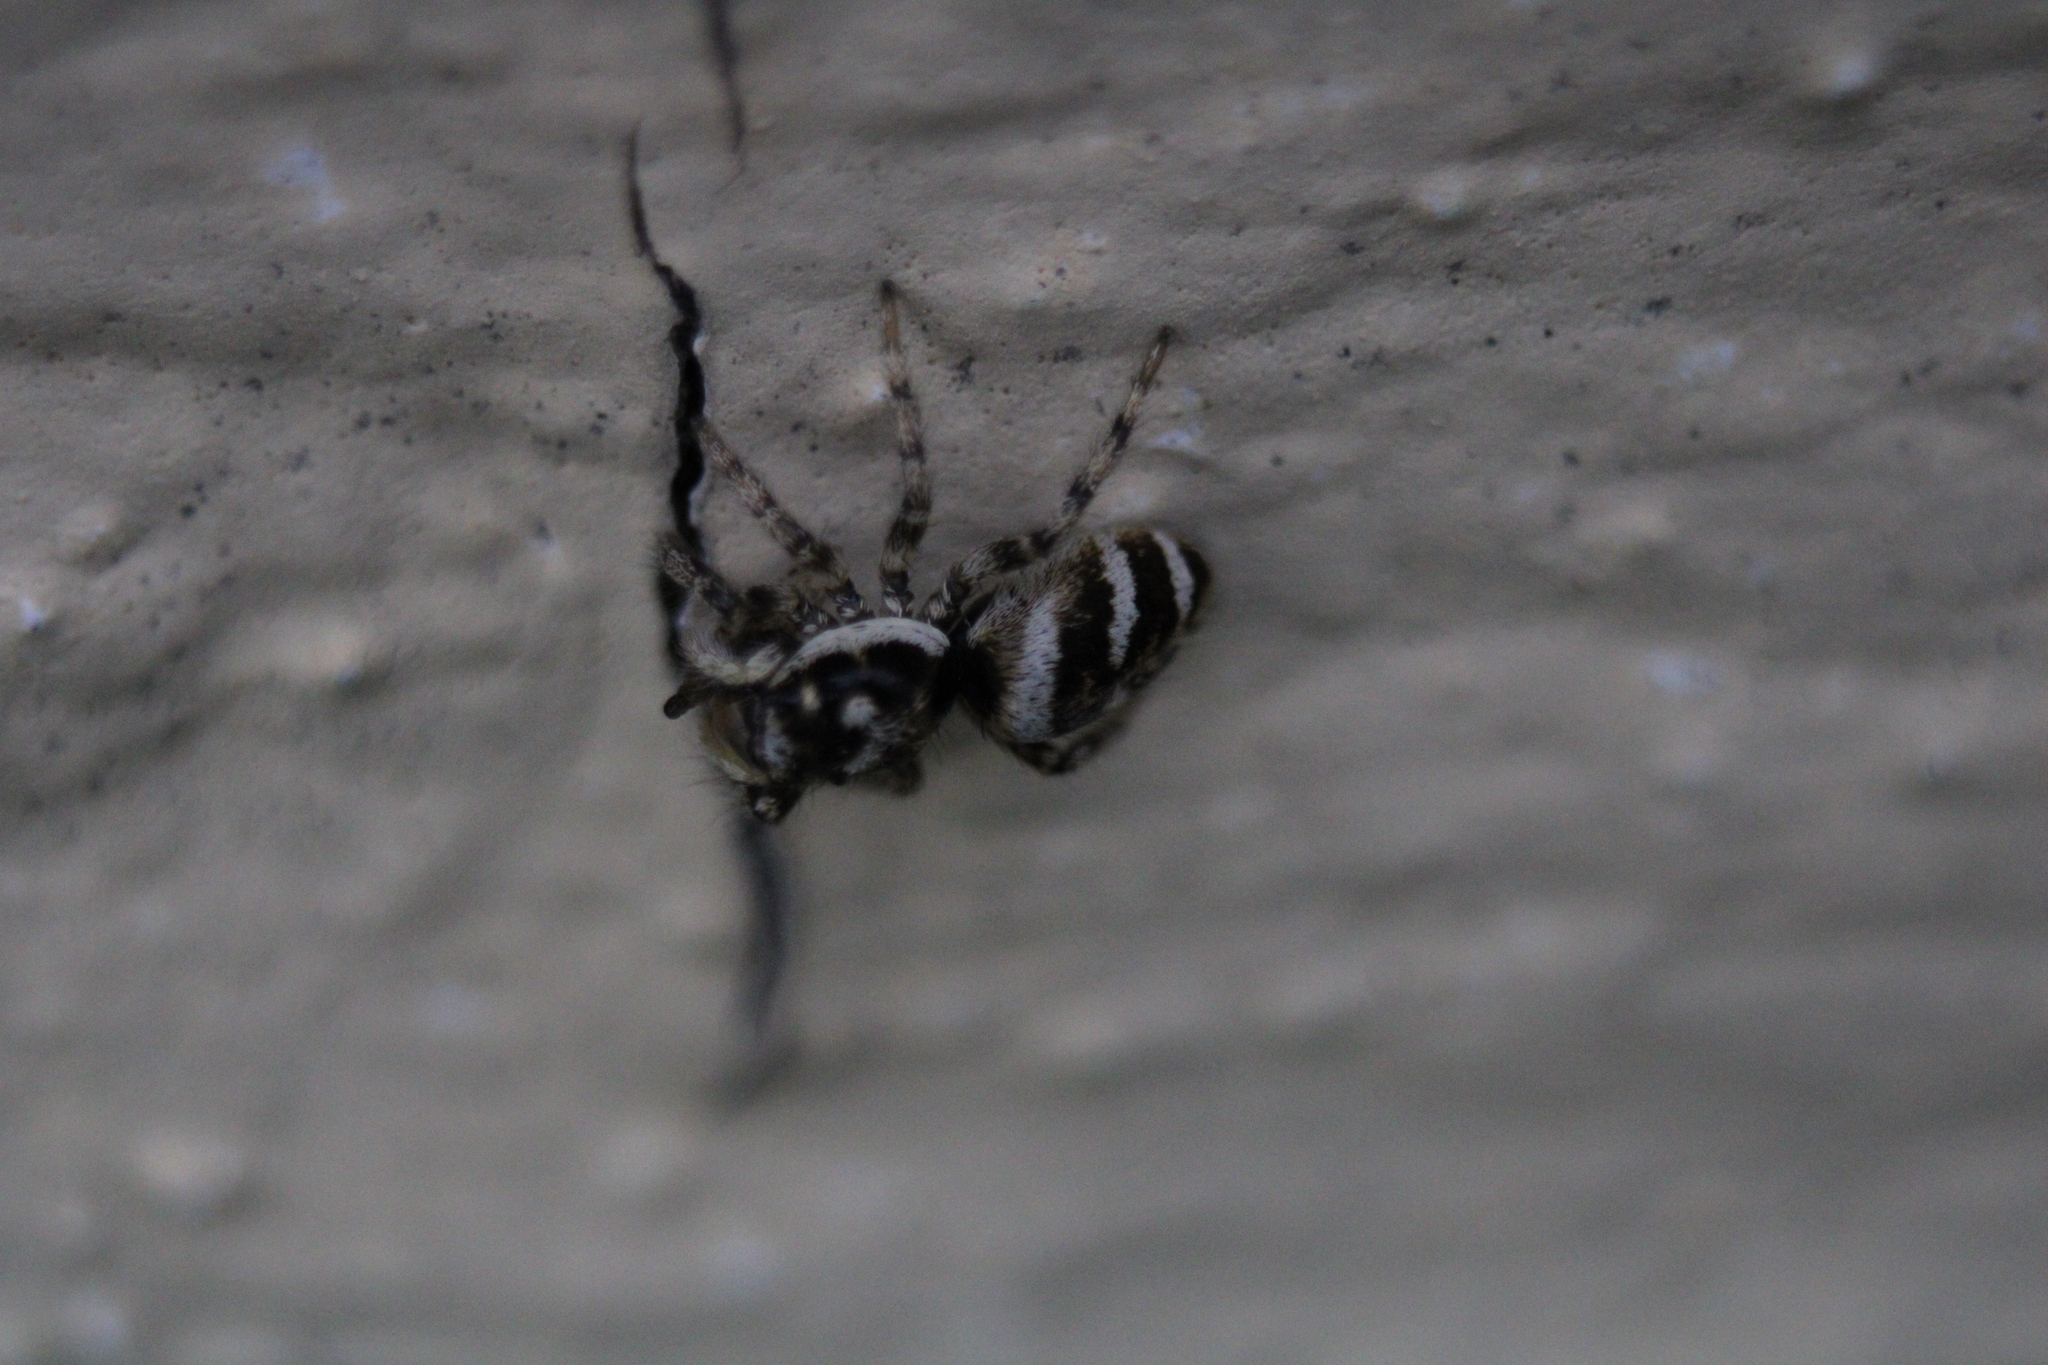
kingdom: Animalia
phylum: Arthropoda
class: Arachnida
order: Araneae
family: Salticidae
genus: Salticus
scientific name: Salticus scenicus
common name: Zebra jumper
